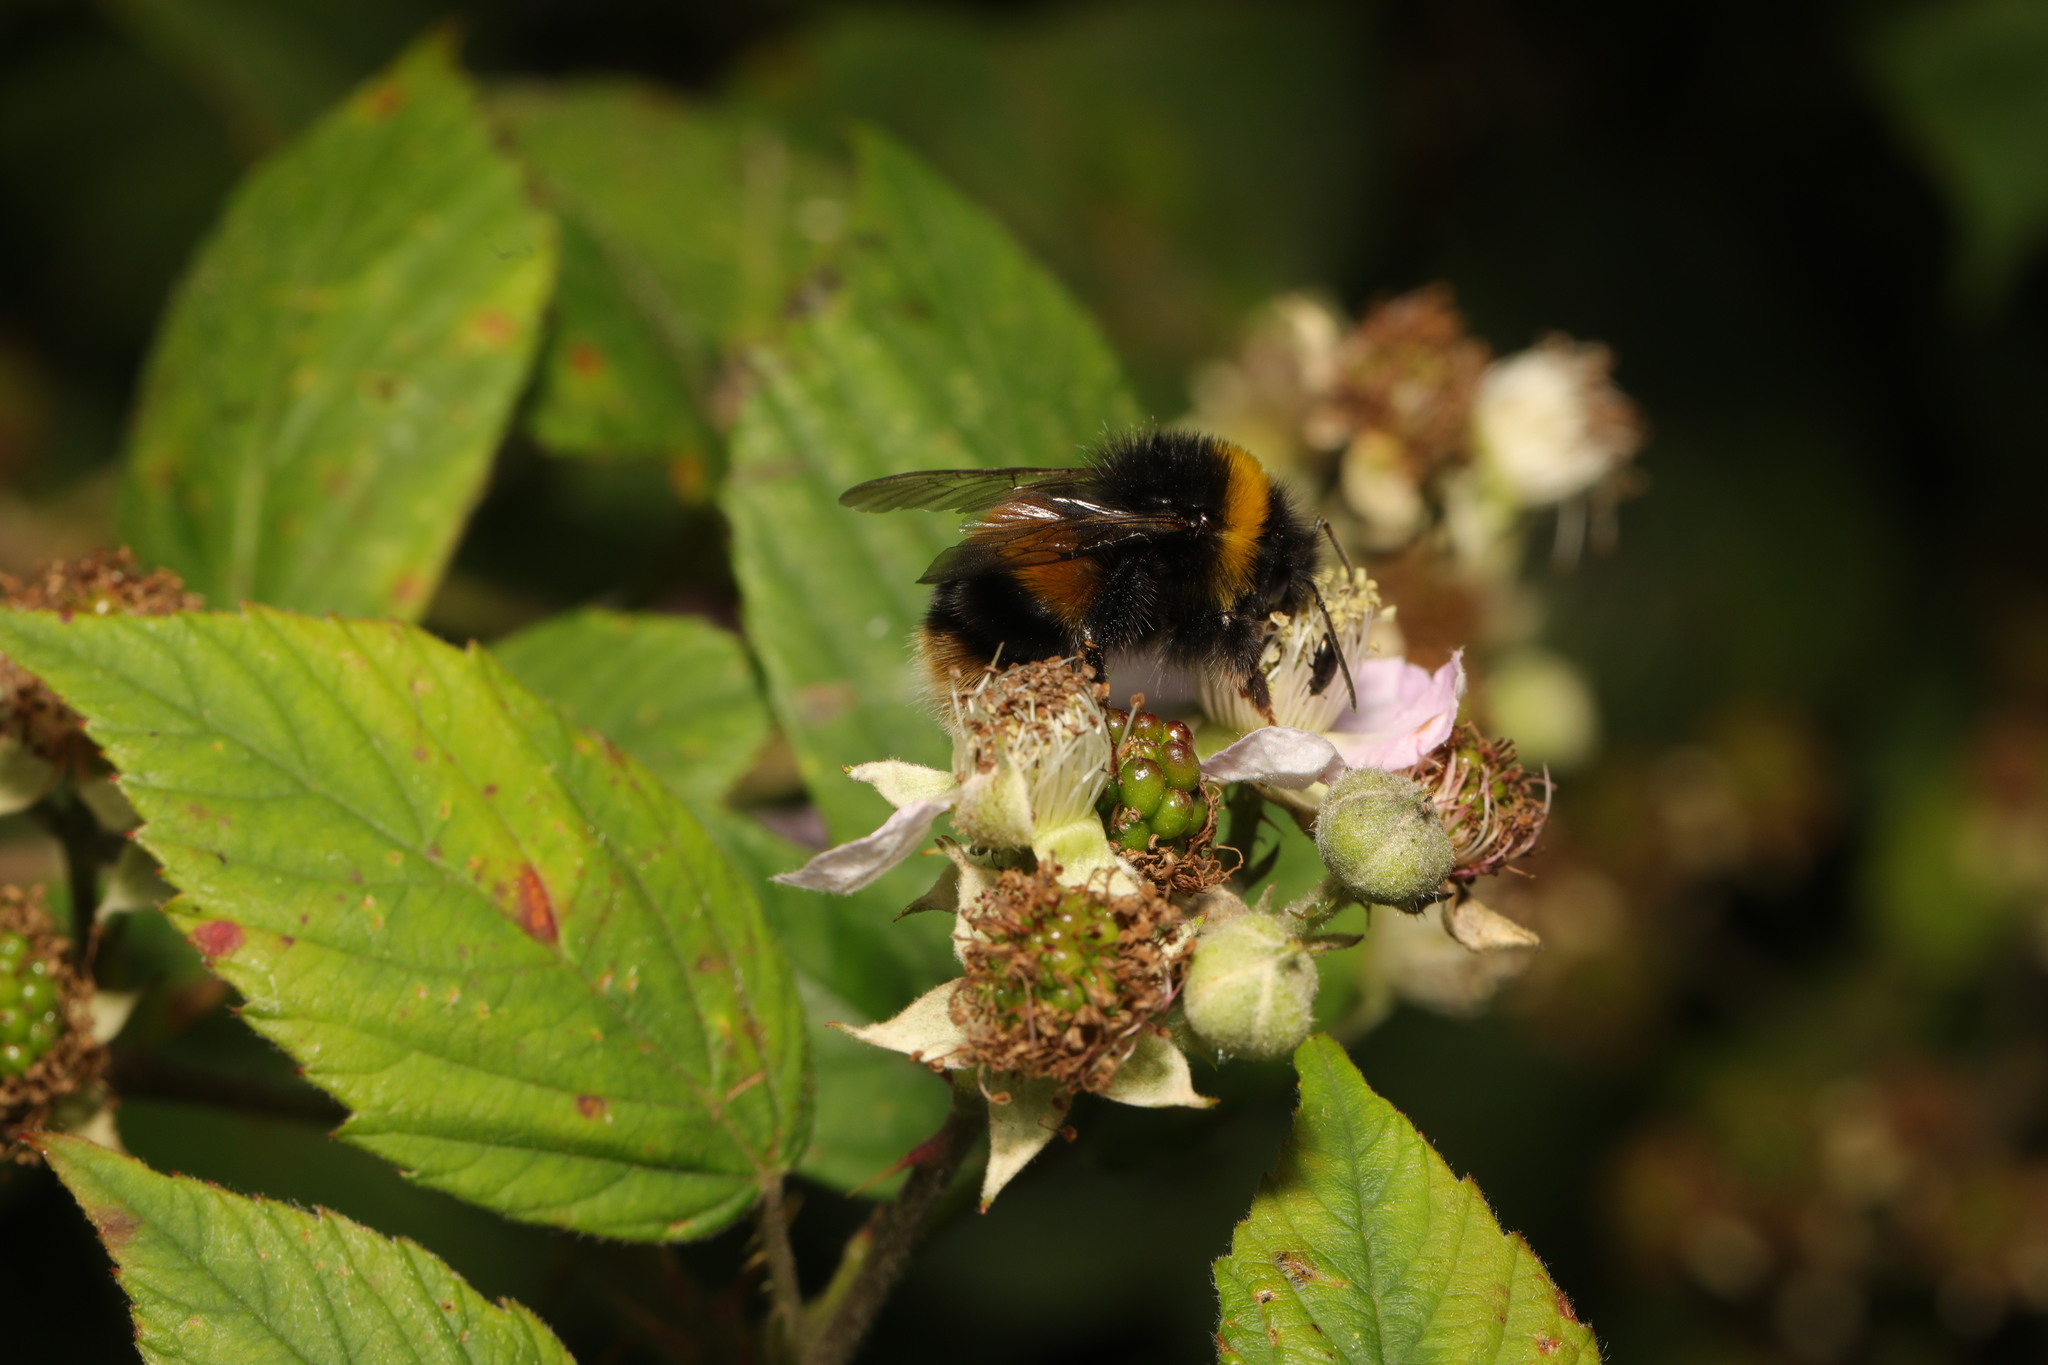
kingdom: Animalia
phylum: Arthropoda
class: Insecta
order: Hymenoptera
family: Apidae
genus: Bombus
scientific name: Bombus terrestris
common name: Buff-tailed bumblebee
